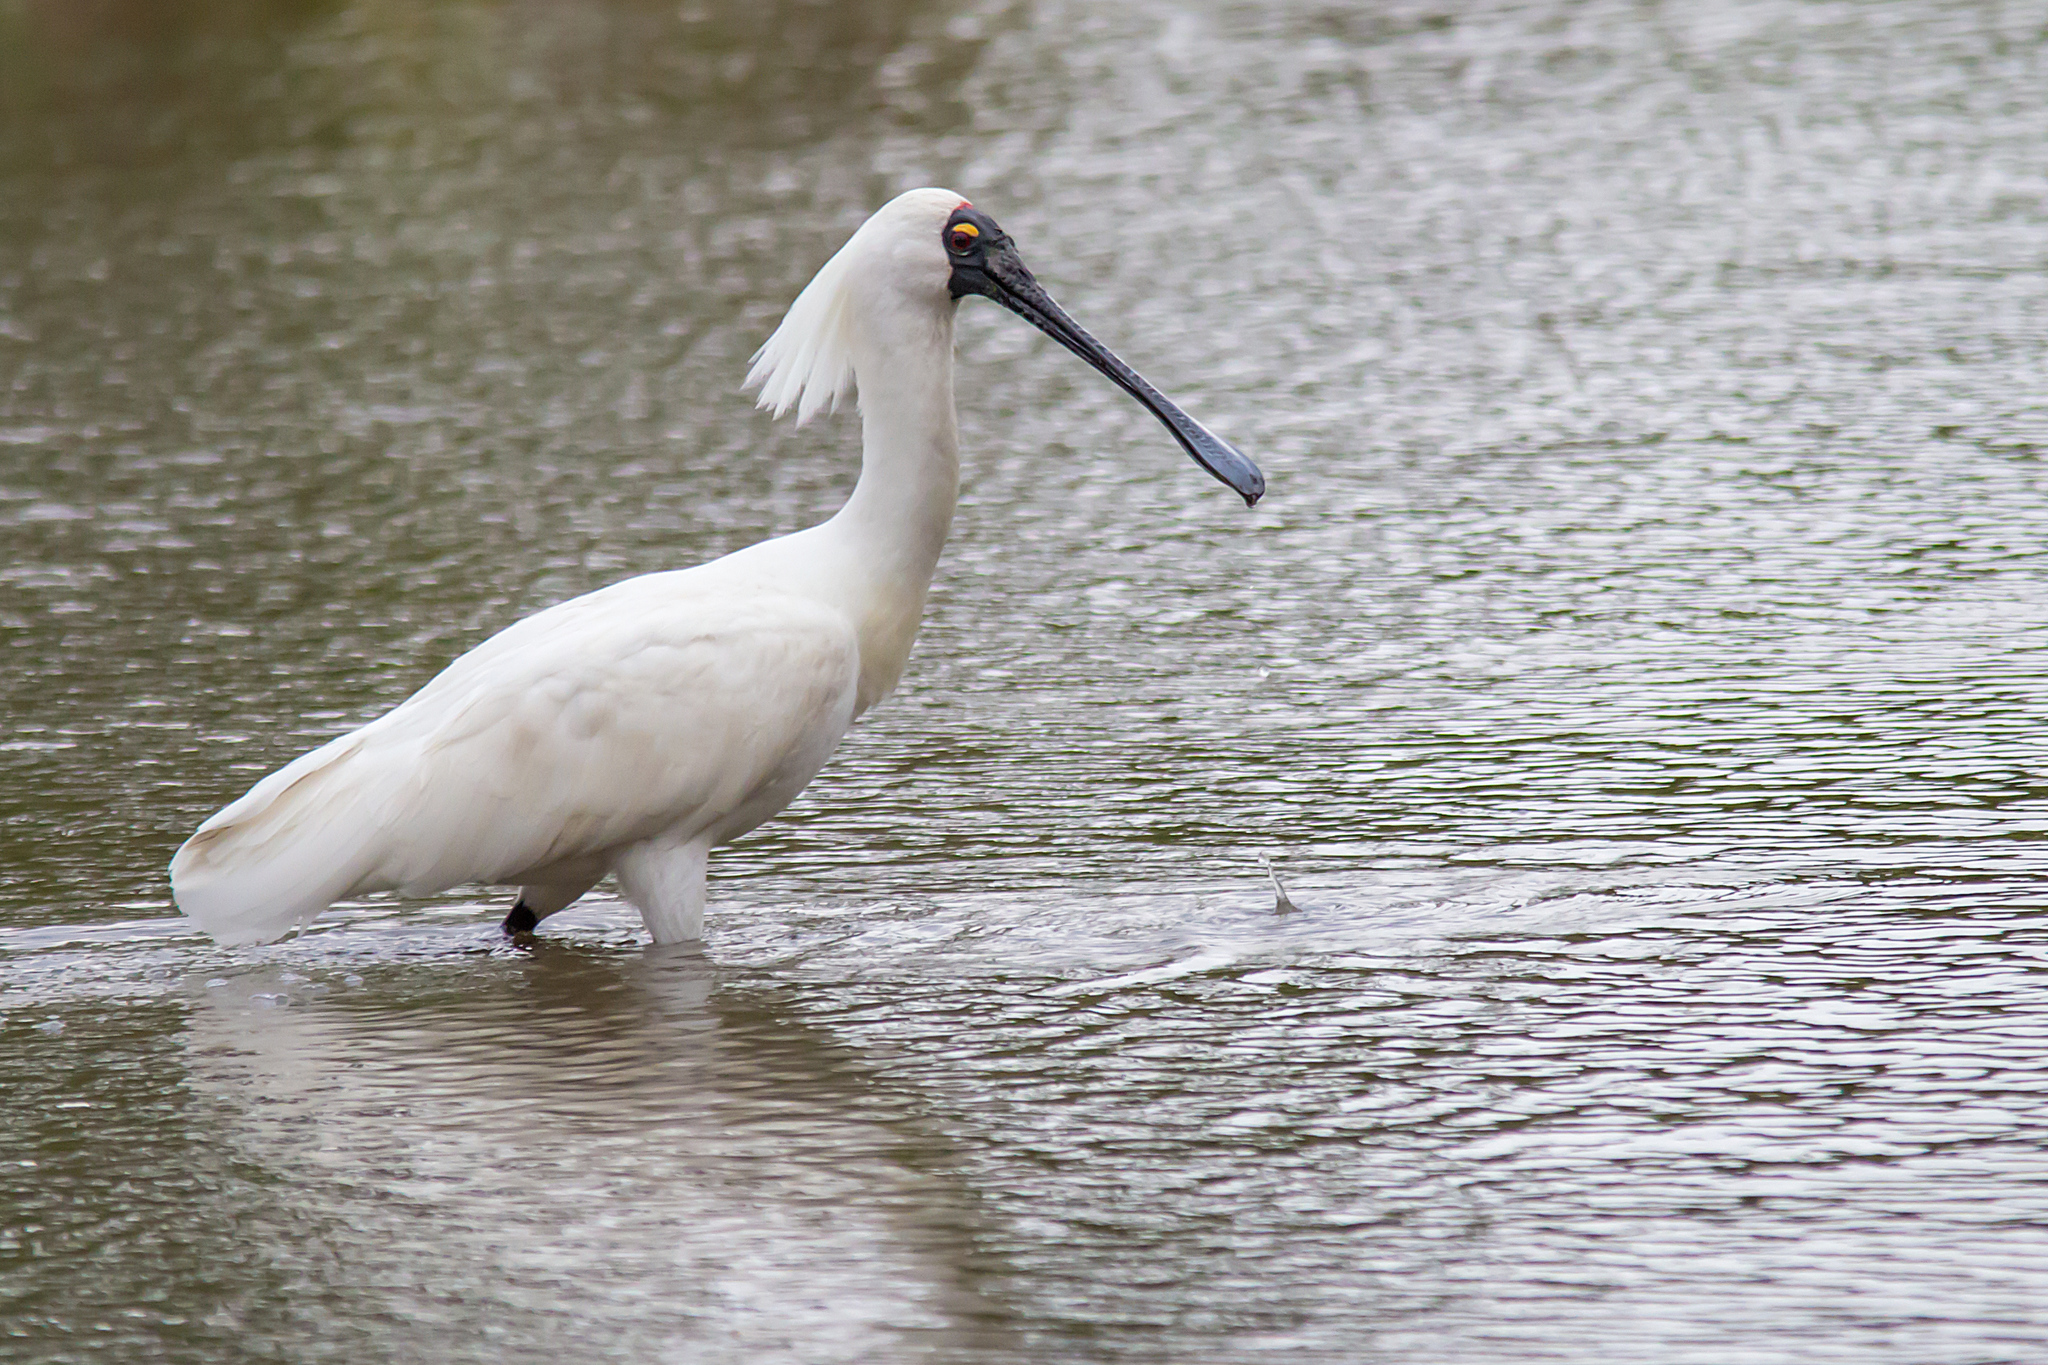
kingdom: Animalia
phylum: Chordata
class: Aves
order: Pelecaniformes
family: Threskiornithidae
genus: Platalea
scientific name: Platalea regia
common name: Royal spoonbill
